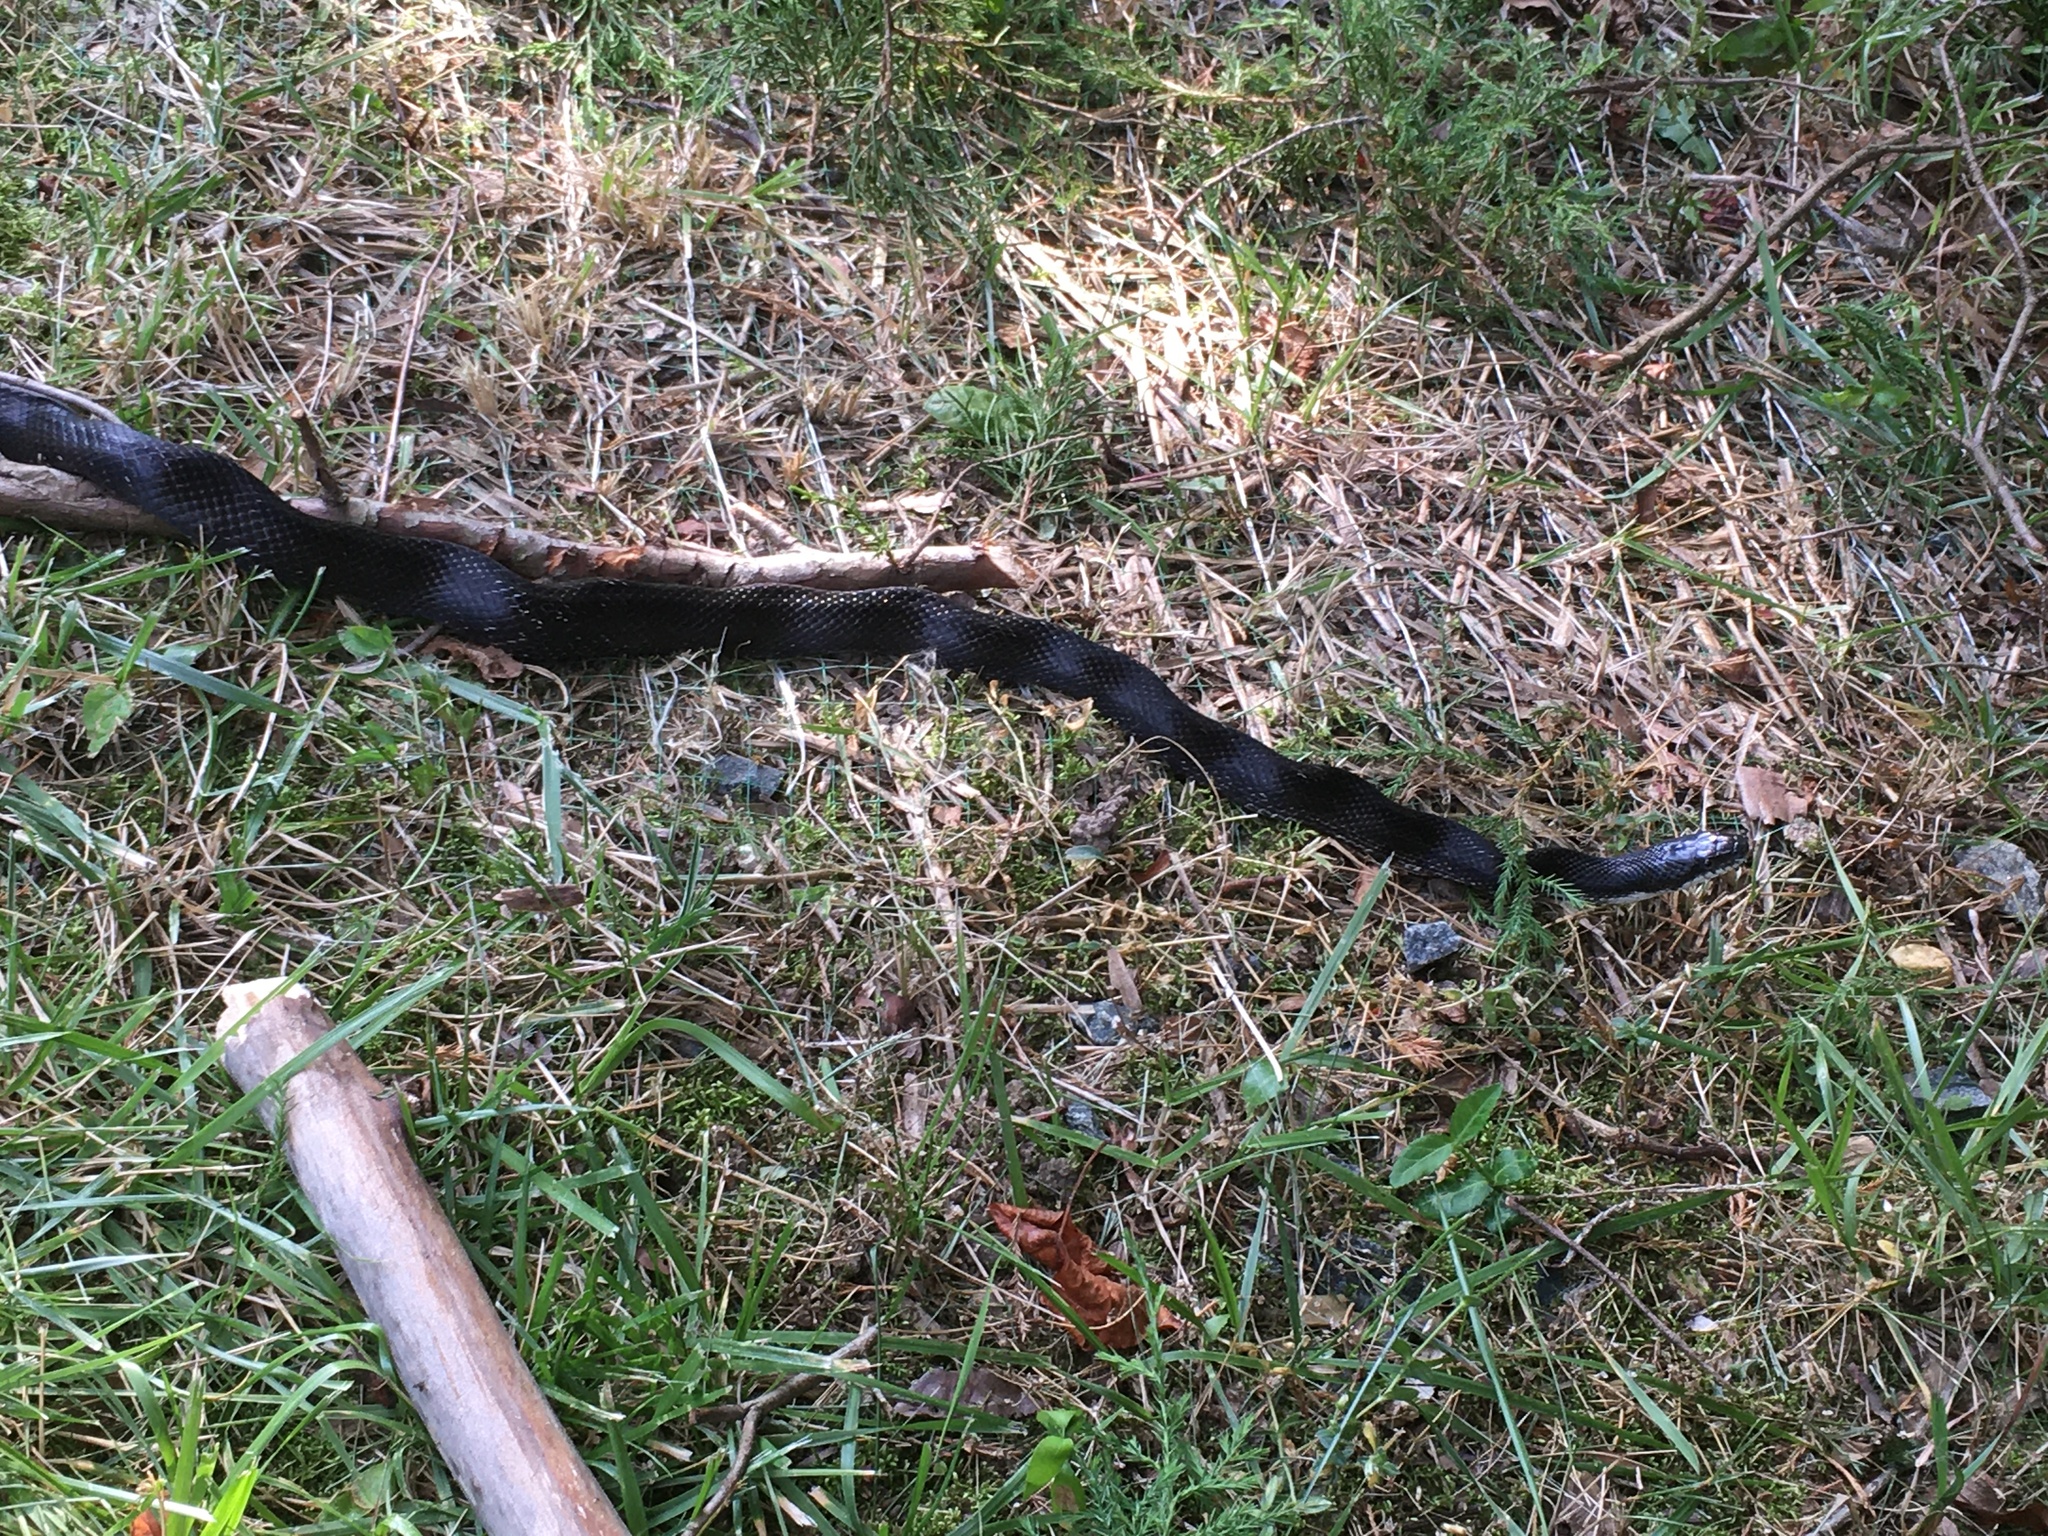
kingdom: Animalia
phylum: Chordata
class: Squamata
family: Colubridae
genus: Pantherophis
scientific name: Pantherophis alleghaniensis
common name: Eastern rat snake
